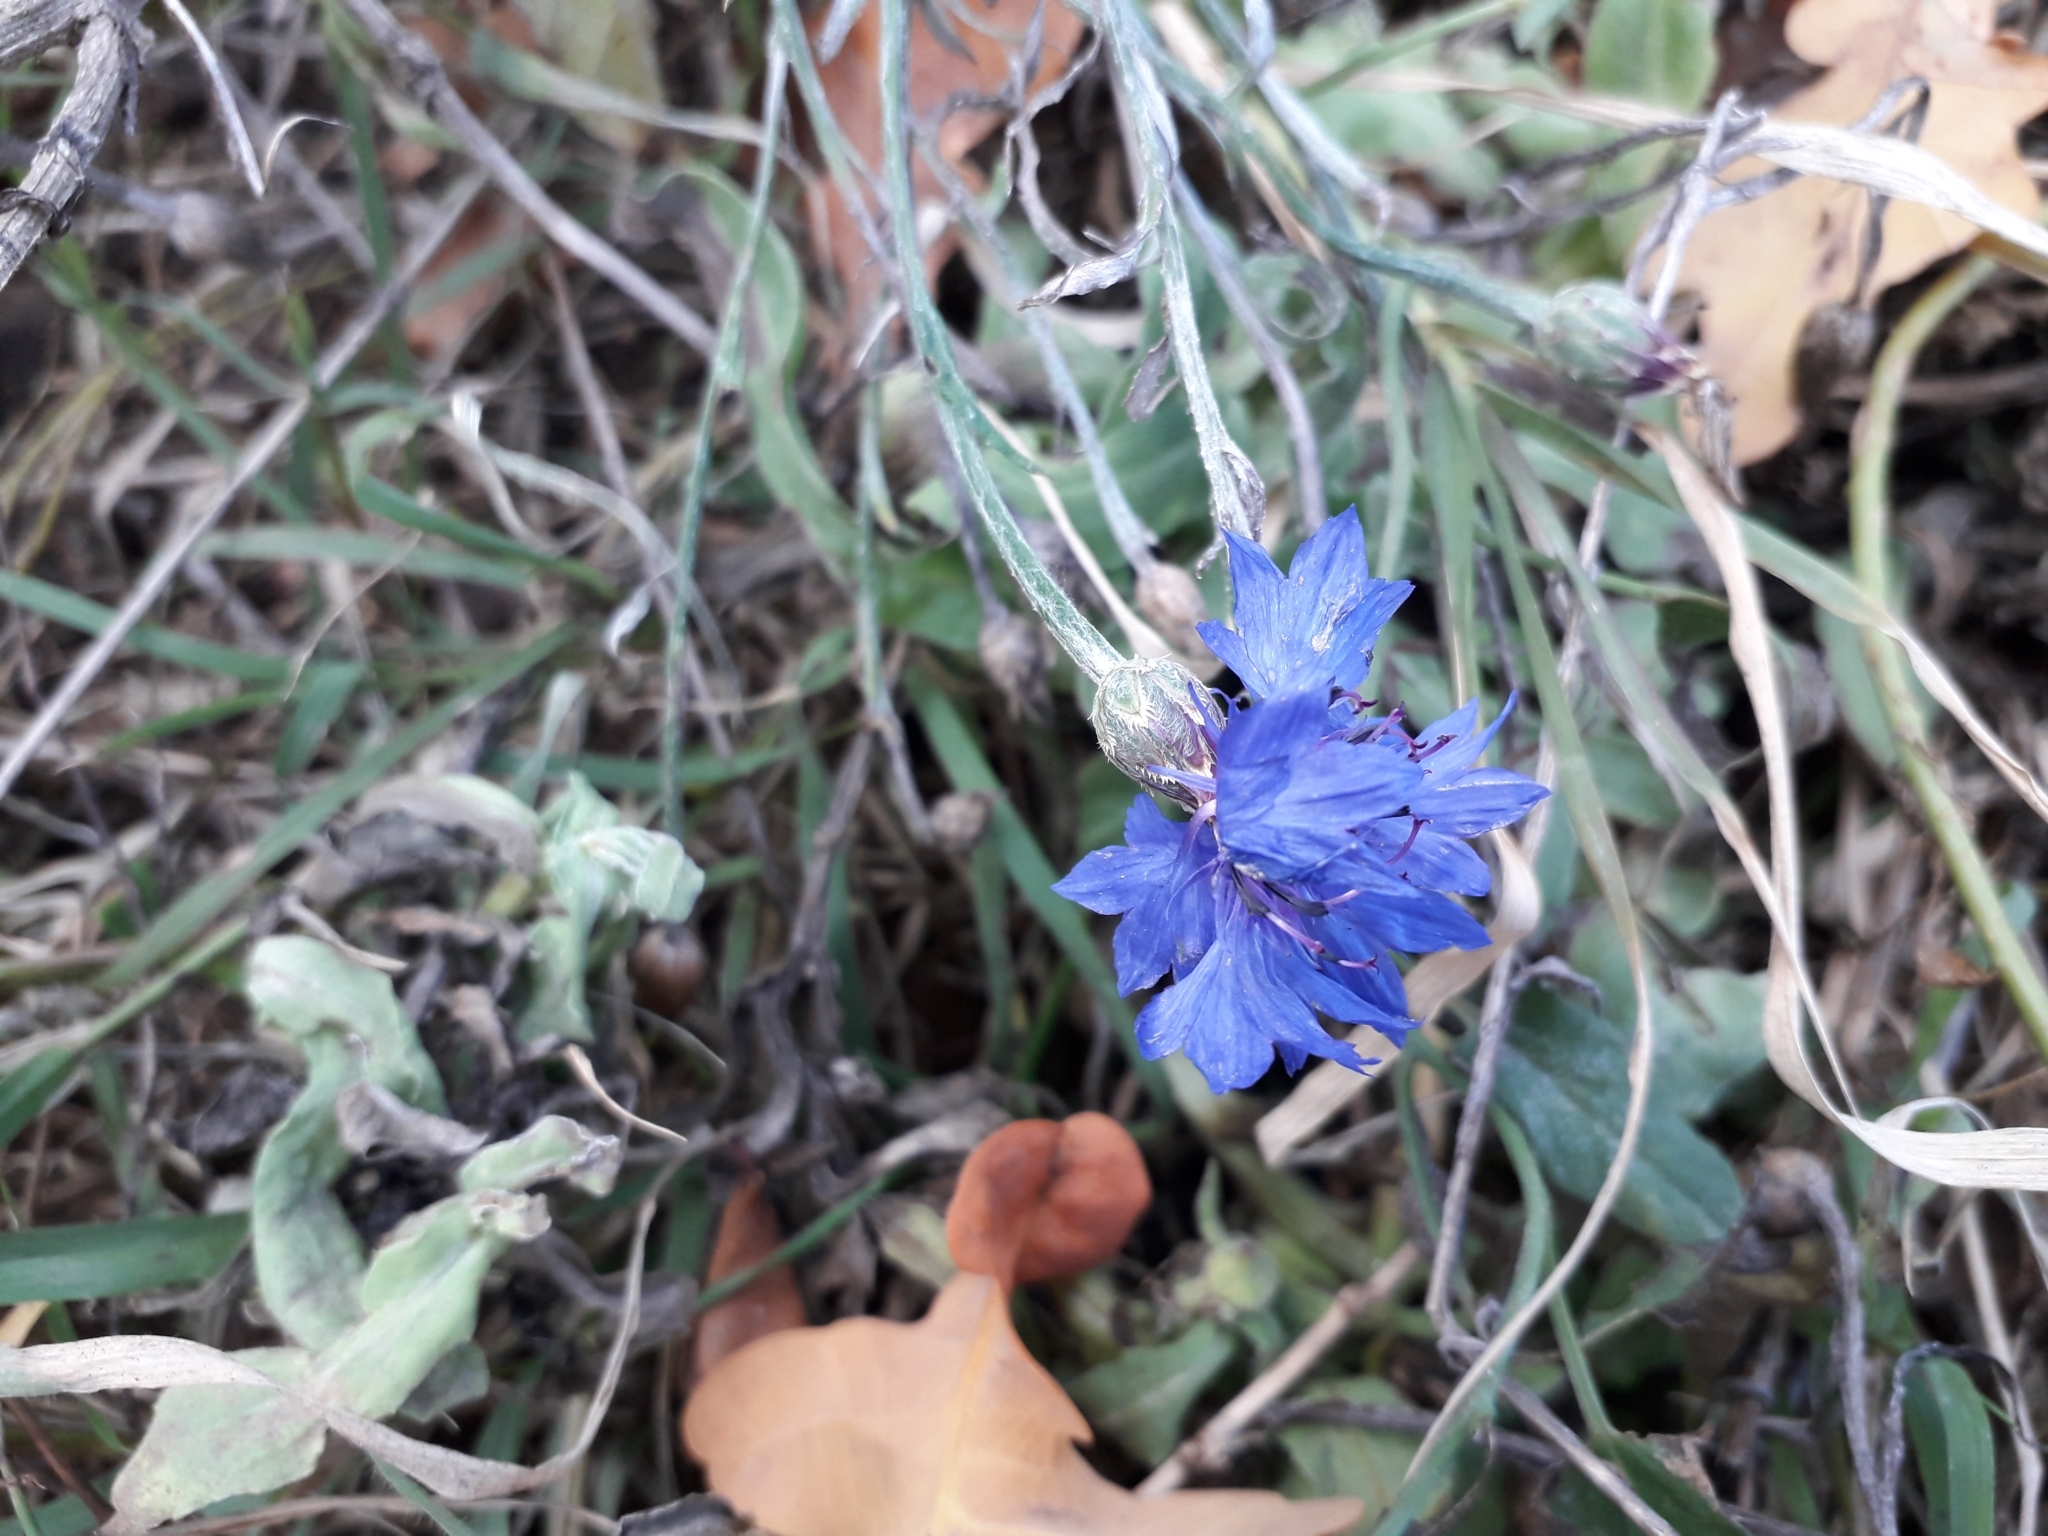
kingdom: Plantae
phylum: Tracheophyta
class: Magnoliopsida
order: Asterales
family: Asteraceae
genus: Centaurea
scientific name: Centaurea cyanus
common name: Cornflower
